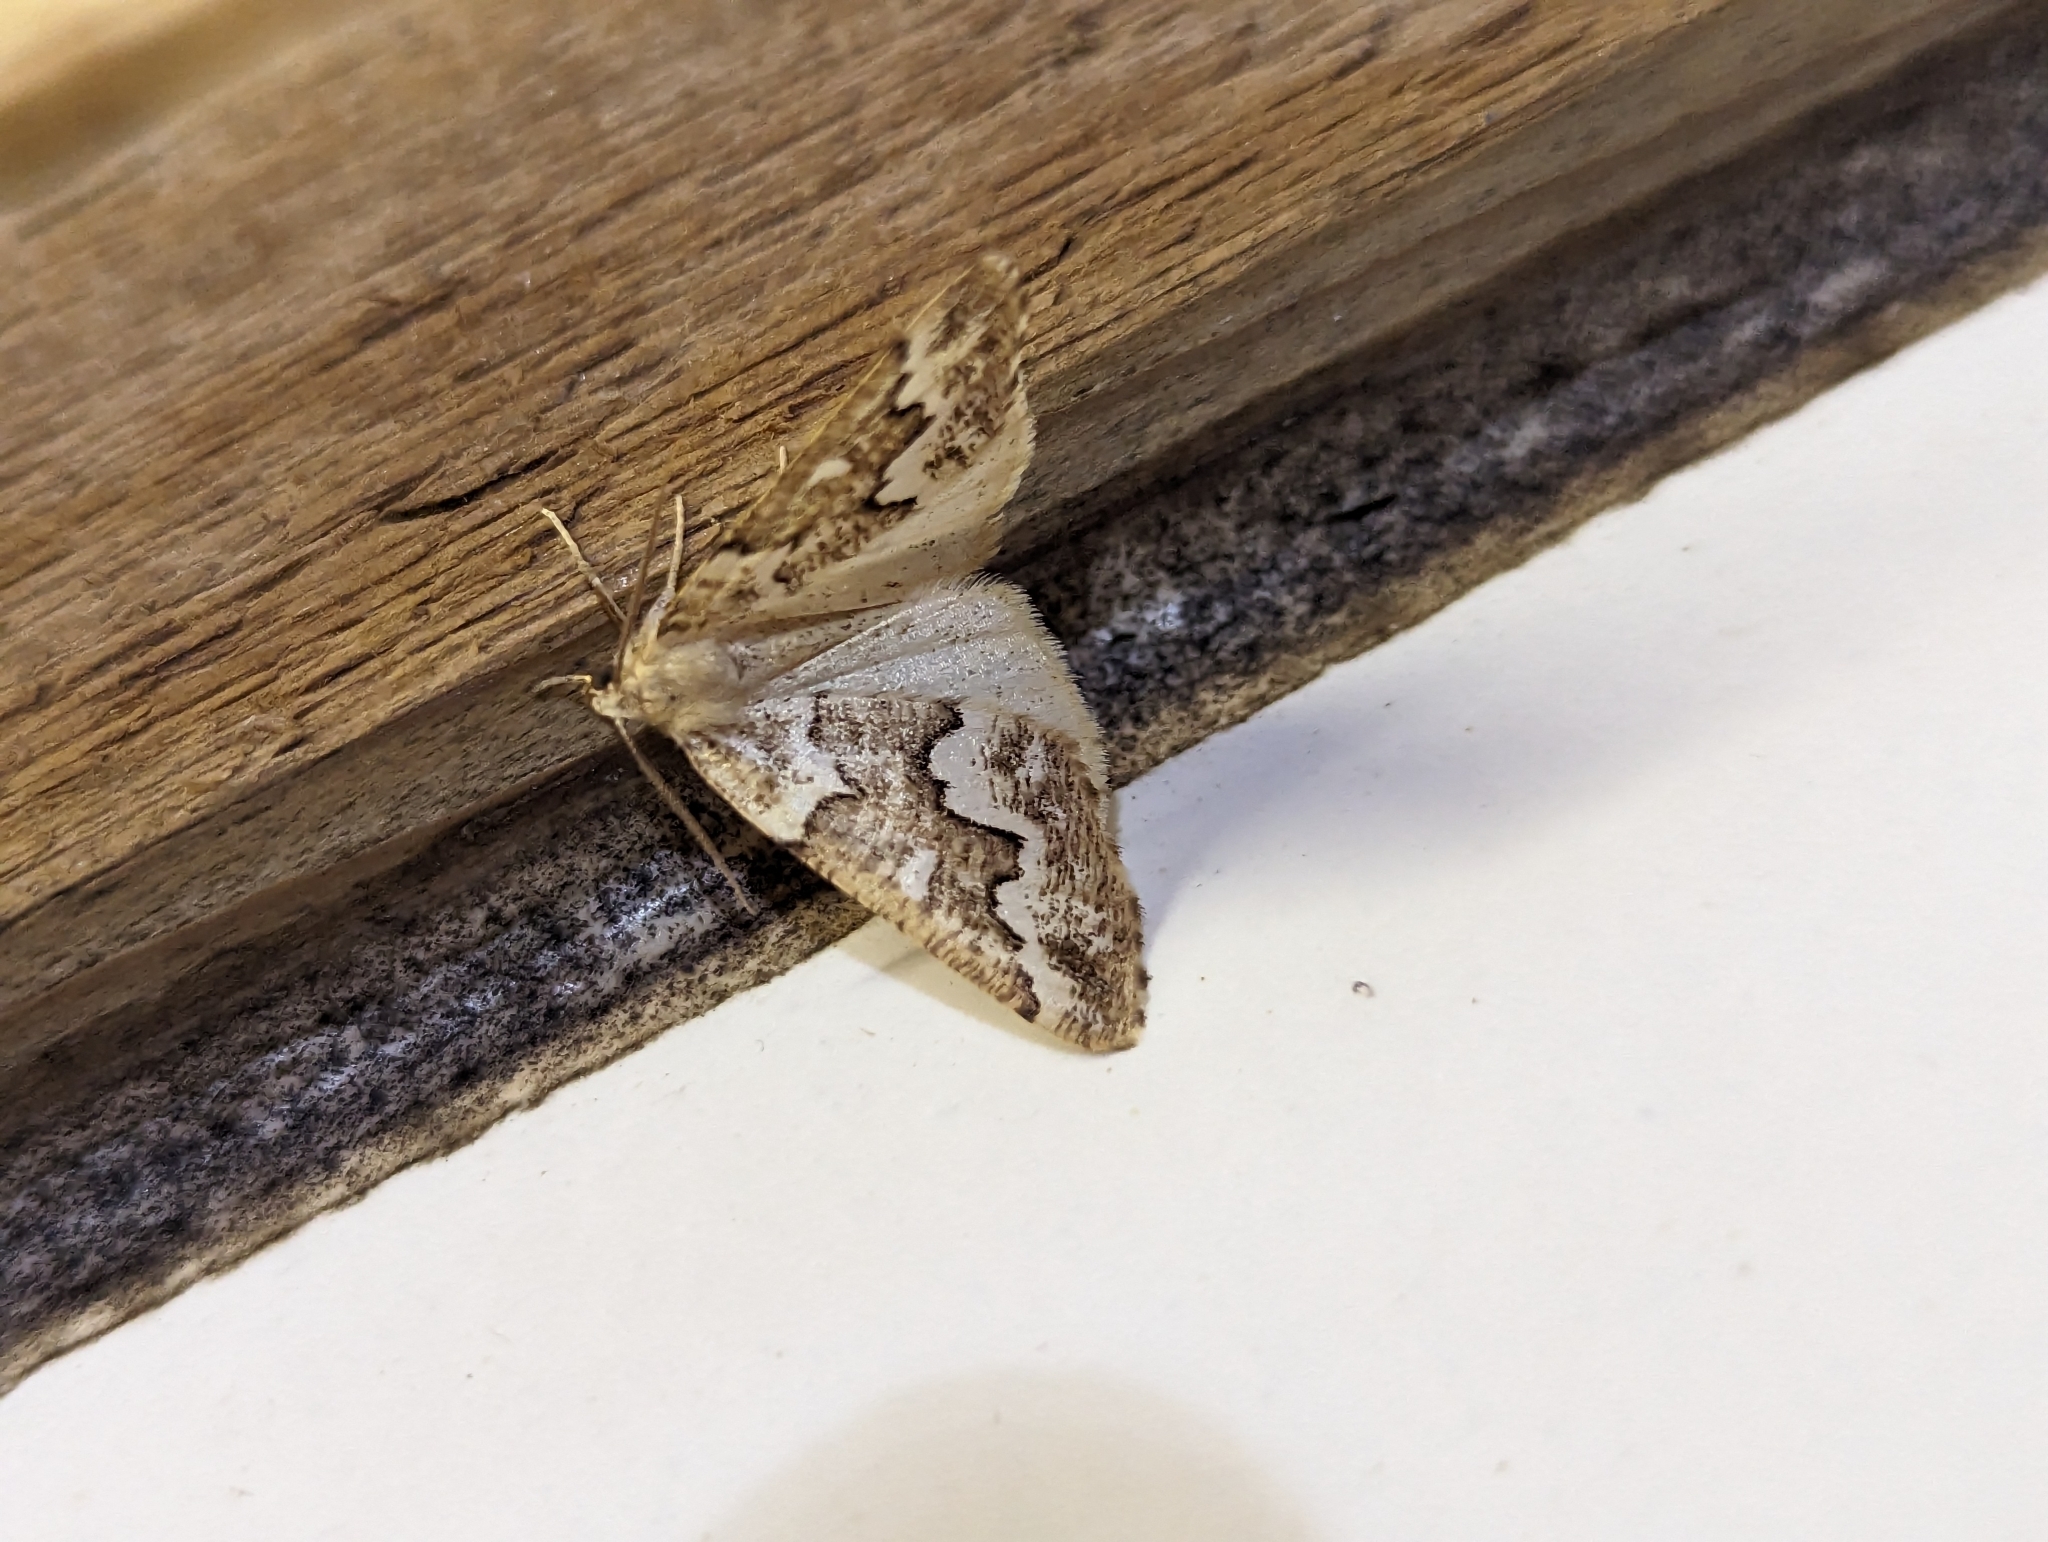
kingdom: Animalia
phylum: Arthropoda
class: Insecta
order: Lepidoptera
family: Geometridae
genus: Caripeta
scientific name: Caripeta divisata
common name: Gray spruce looper
